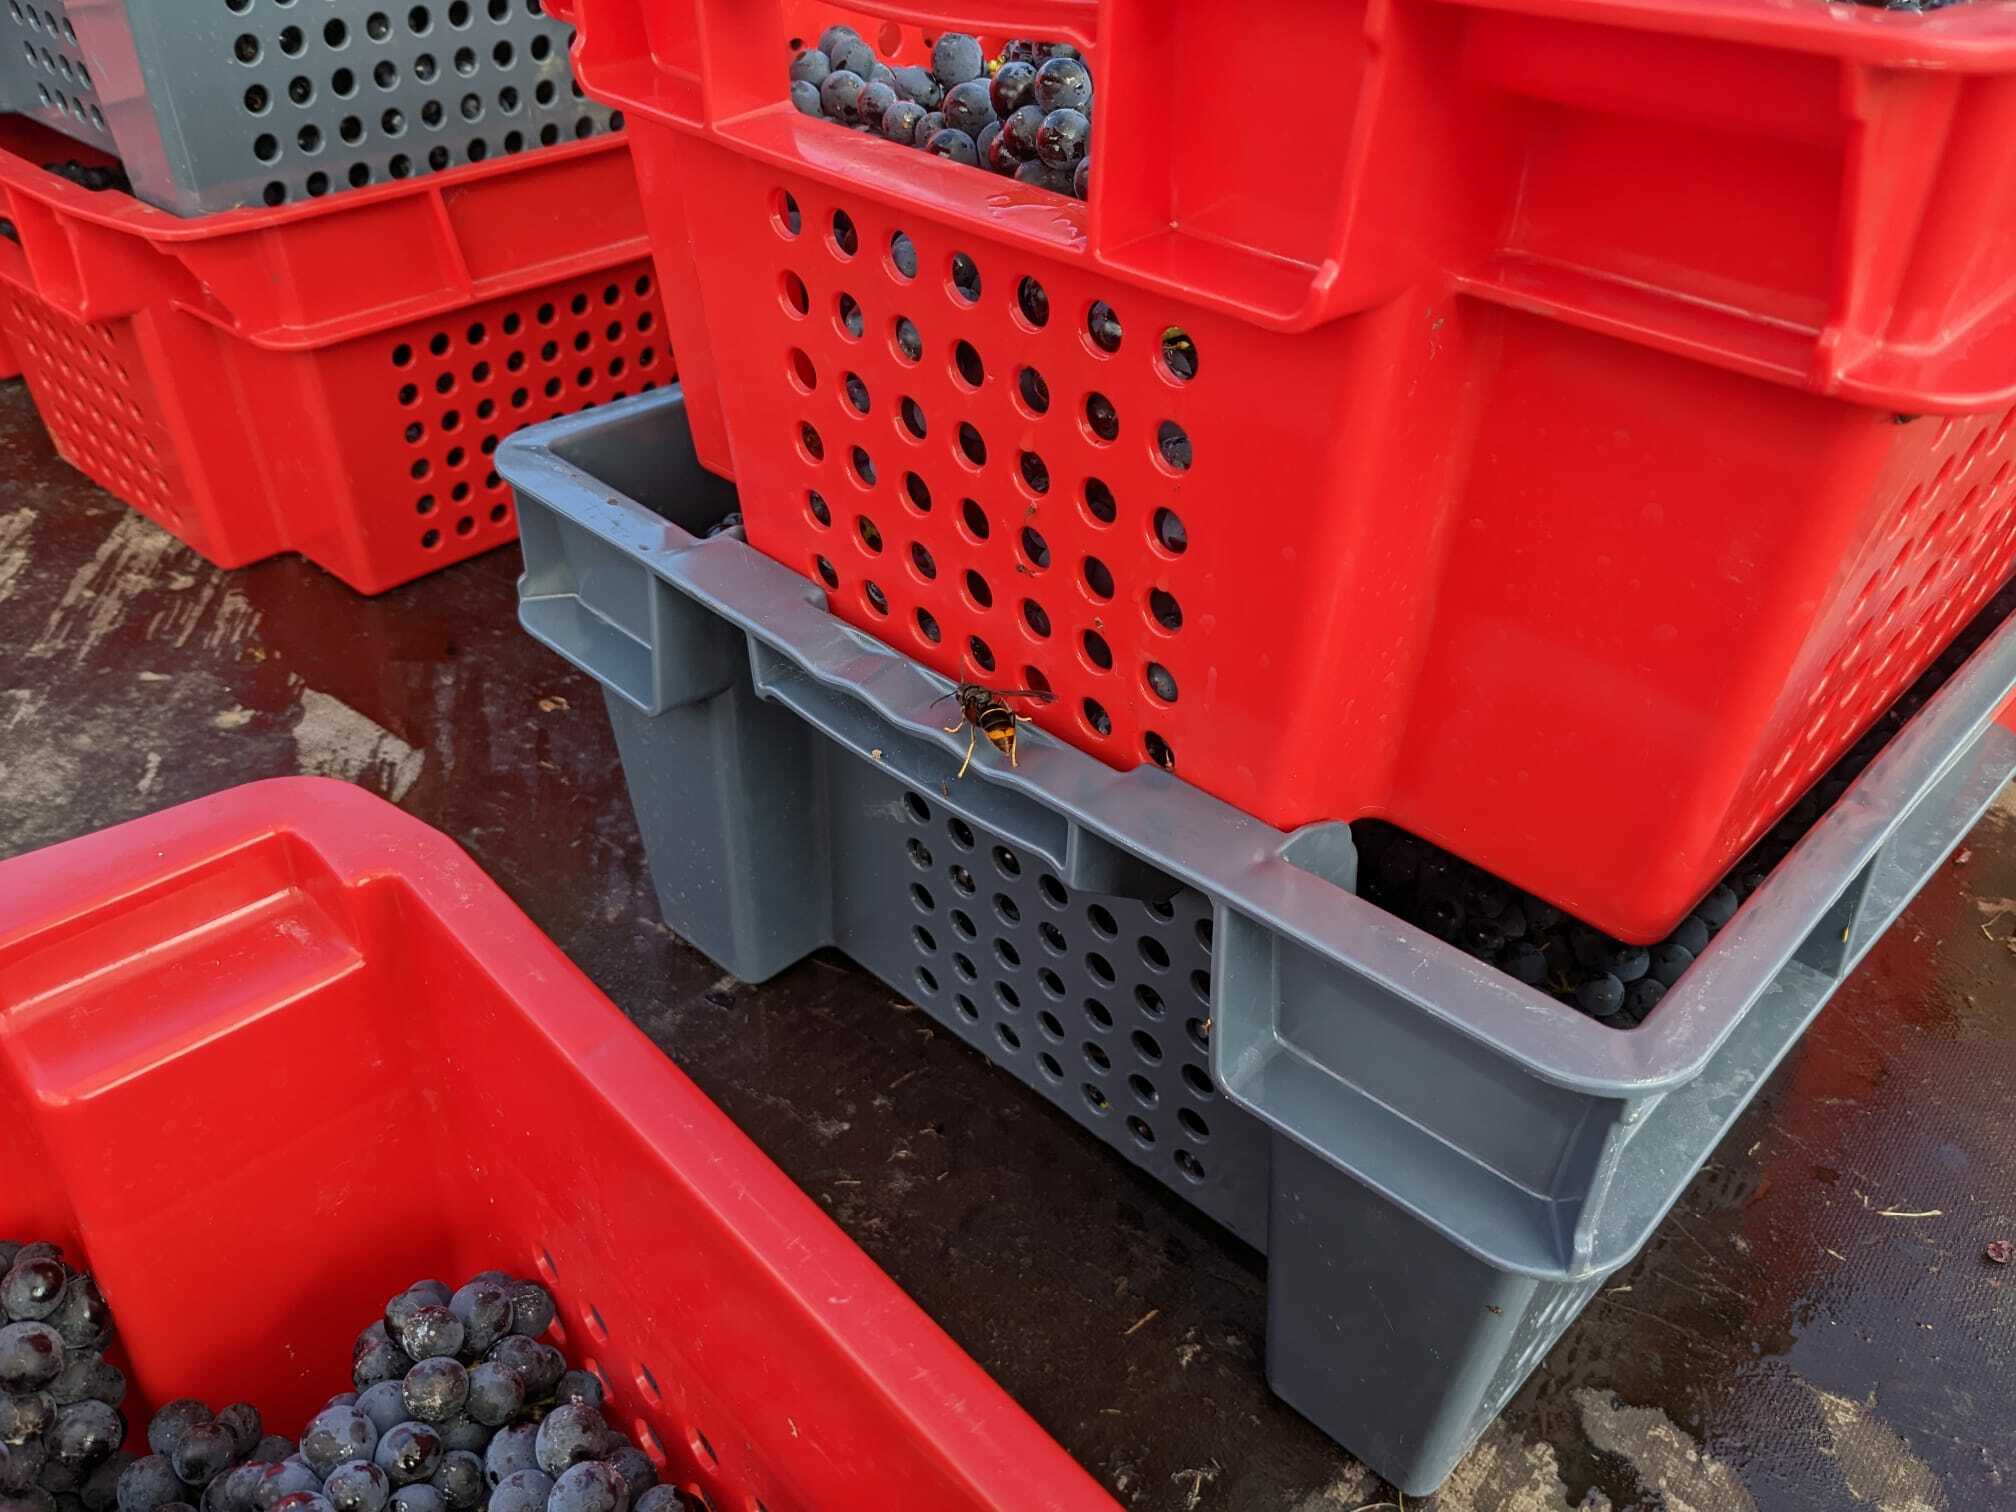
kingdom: Animalia
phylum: Arthropoda
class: Insecta
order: Hymenoptera
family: Vespidae
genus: Vespa
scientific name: Vespa velutina
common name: Asian hornet
